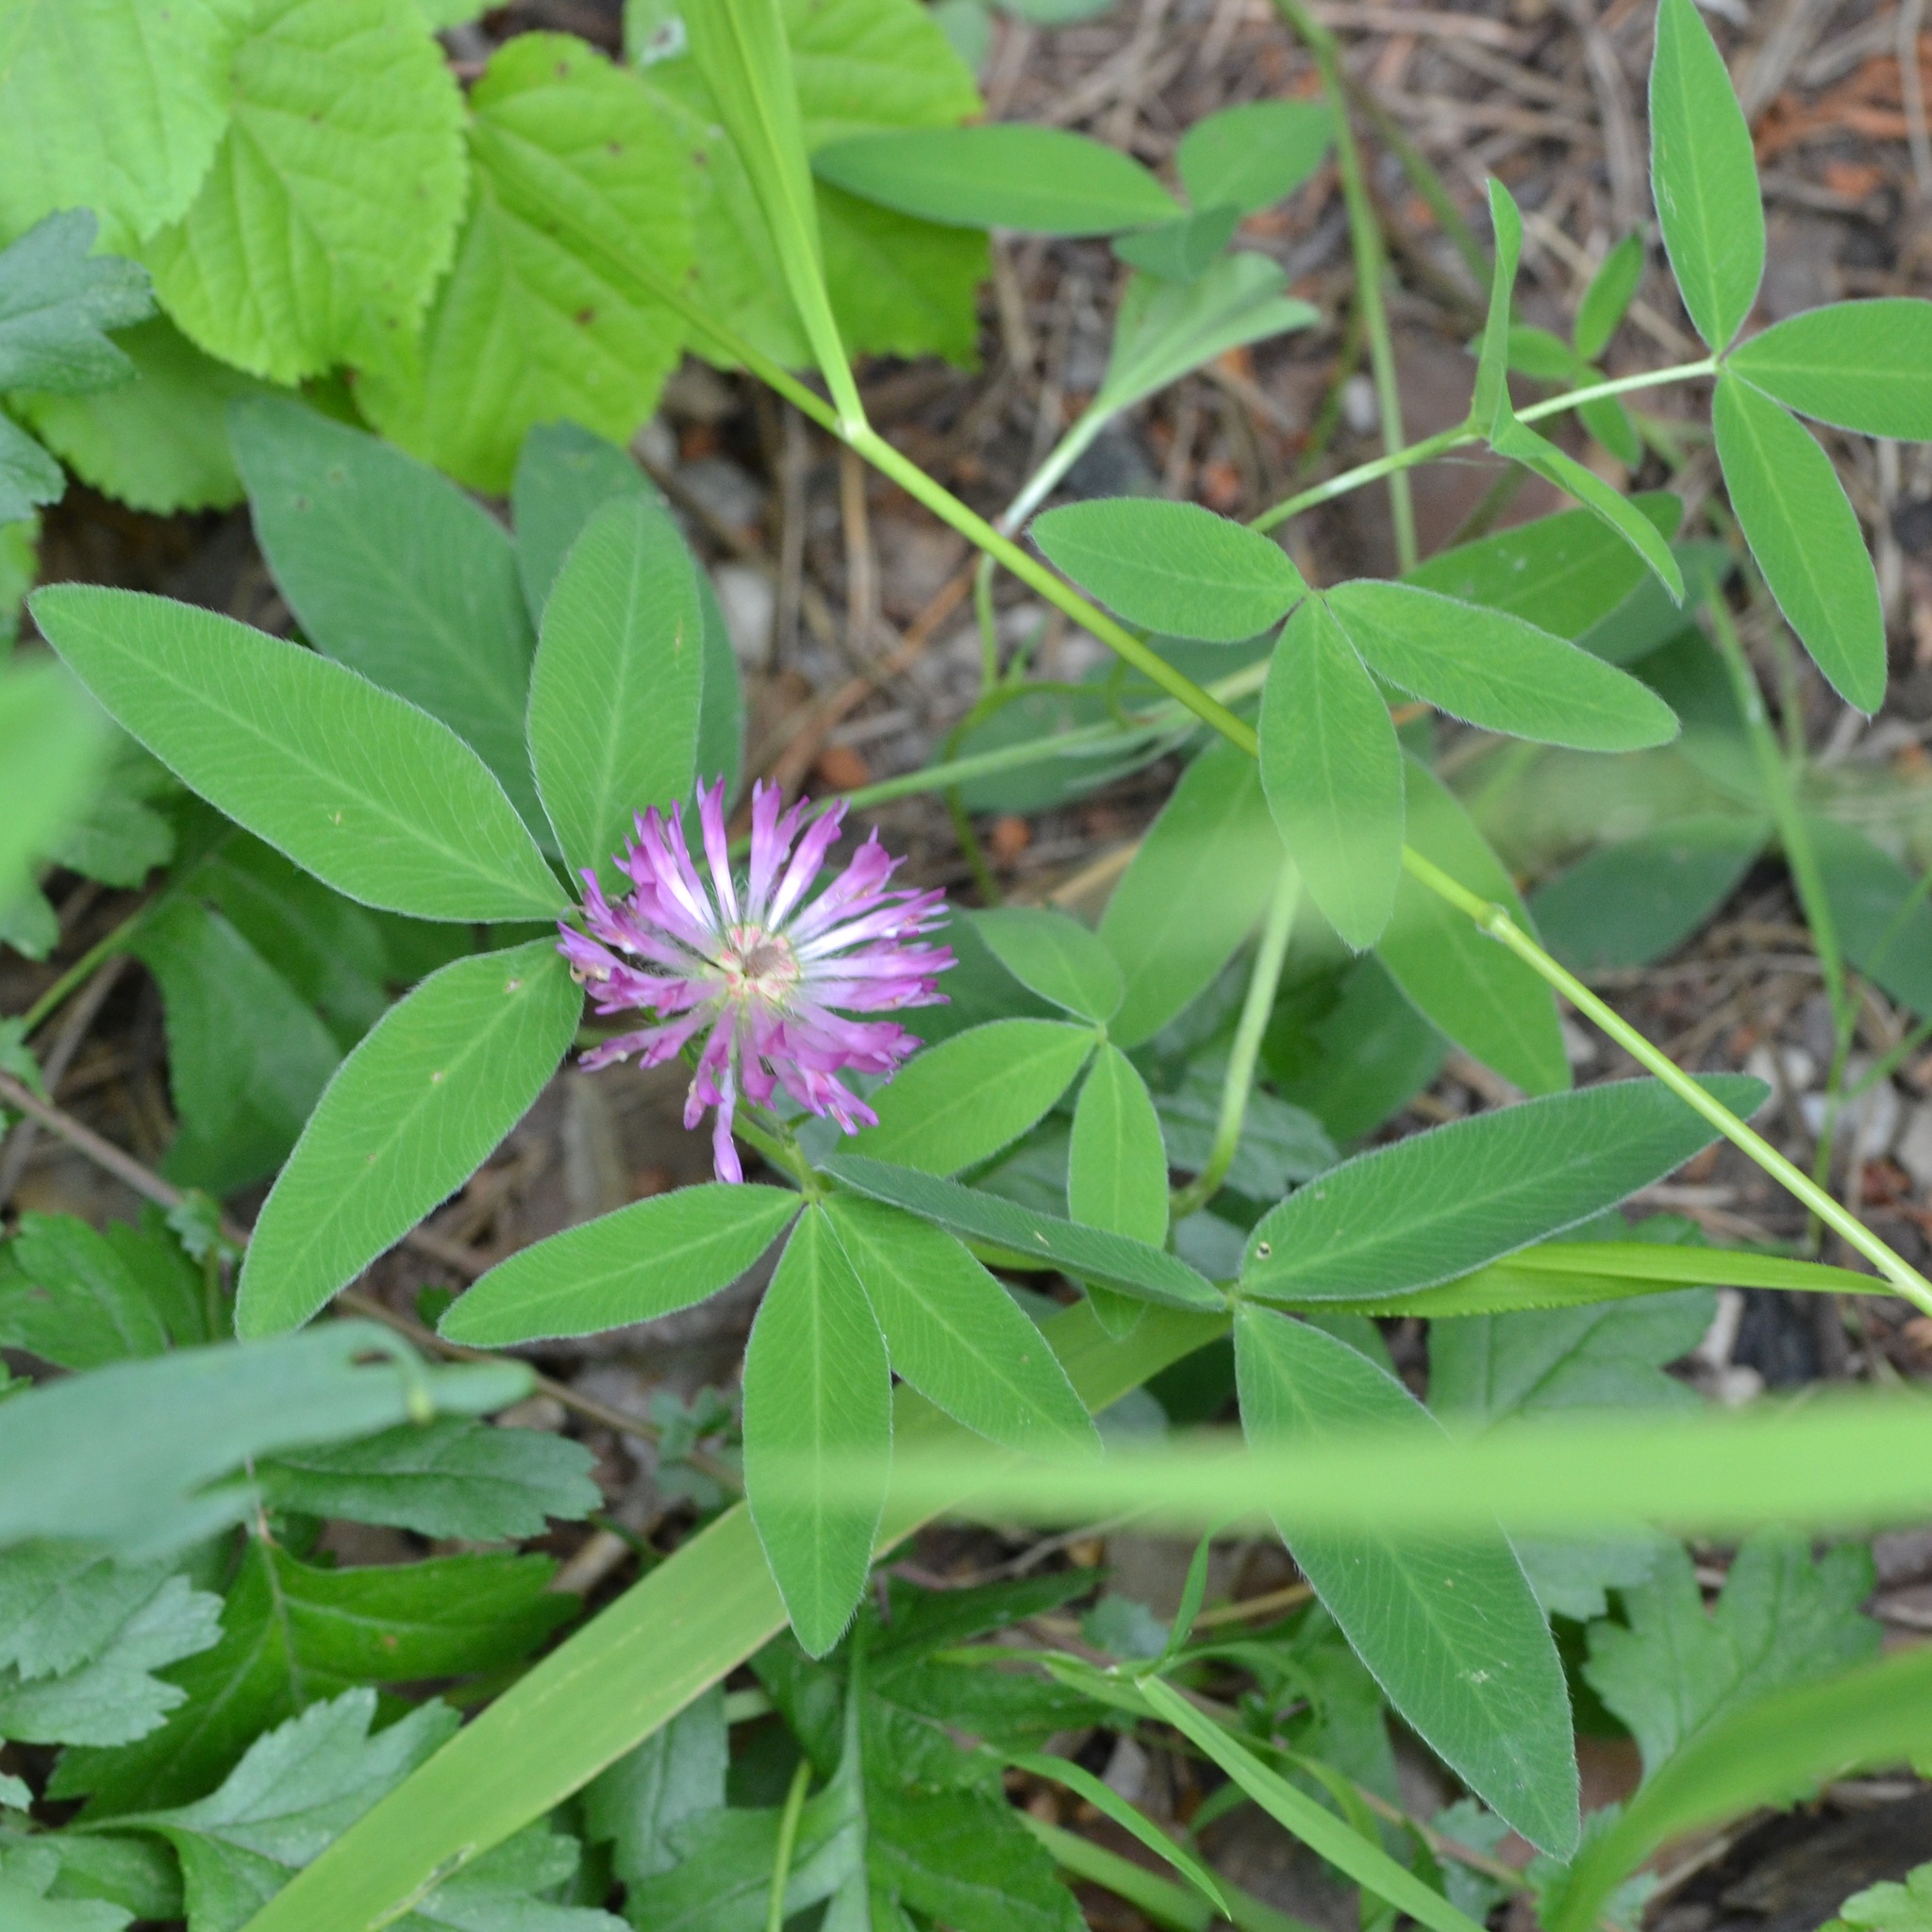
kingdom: Plantae
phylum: Tracheophyta
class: Magnoliopsida
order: Fabales
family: Fabaceae
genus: Trifolium
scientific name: Trifolium medium
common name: Zigzag clover
